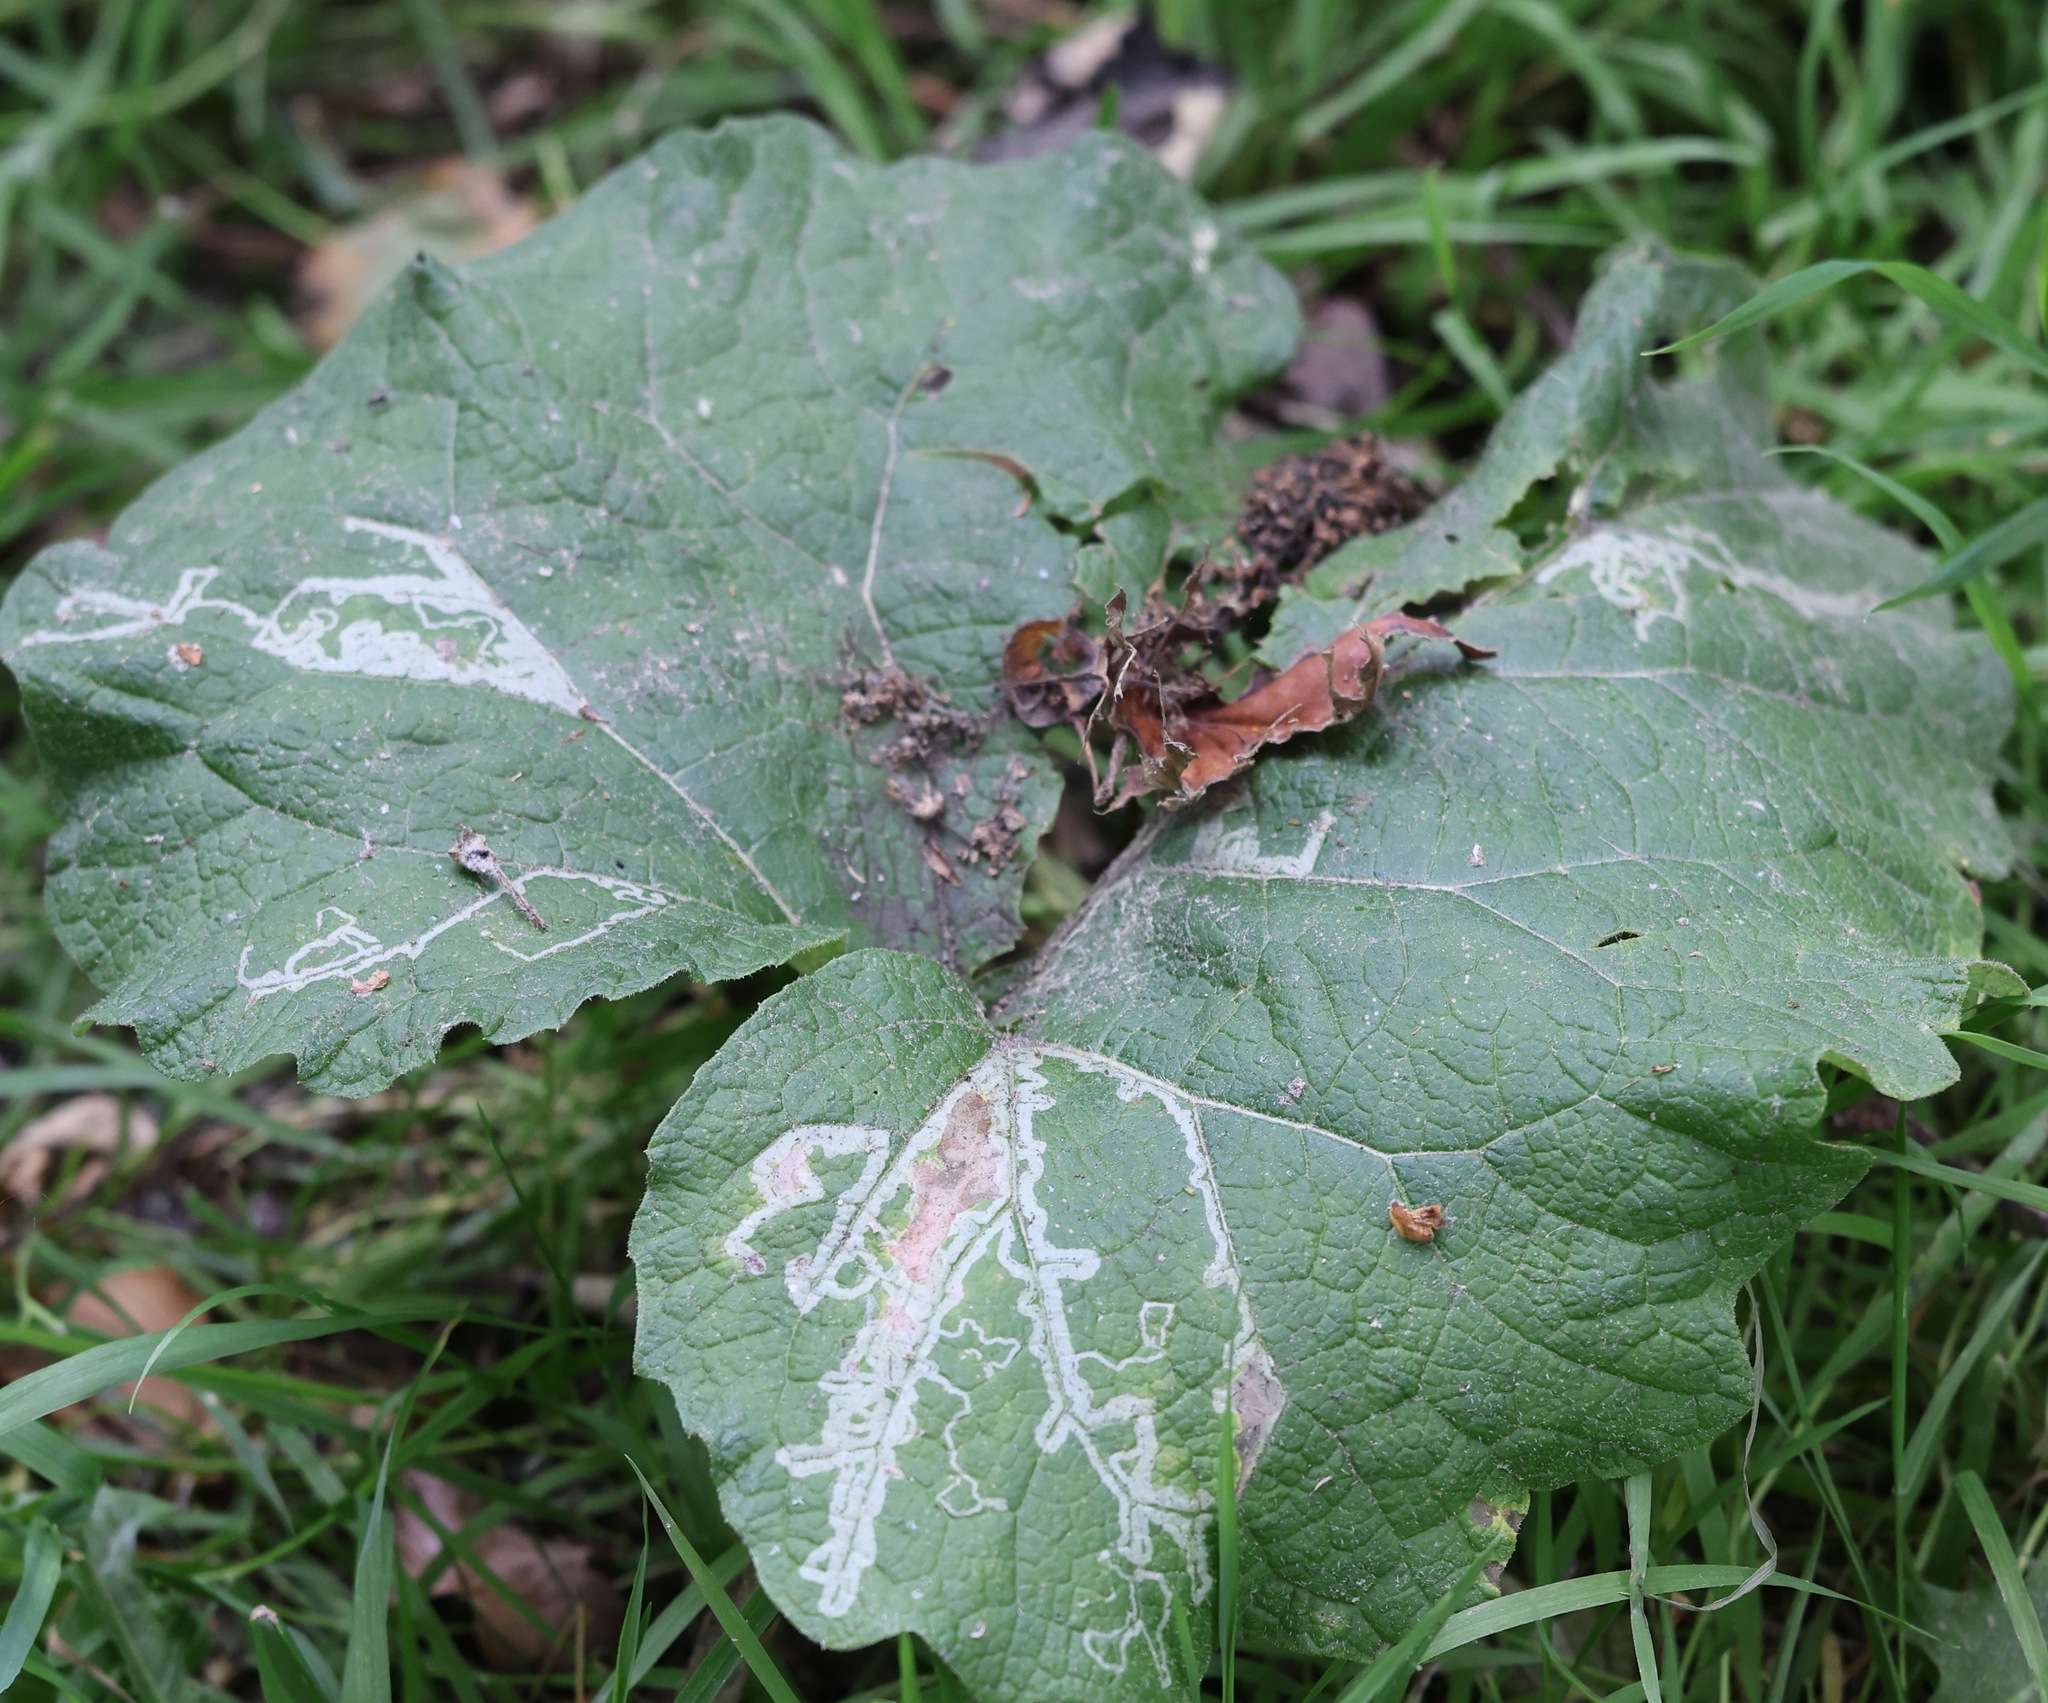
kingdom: Animalia
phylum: Arthropoda
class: Insecta
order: Diptera
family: Agromyzidae
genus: Phytomyza
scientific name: Phytomyza lappae
